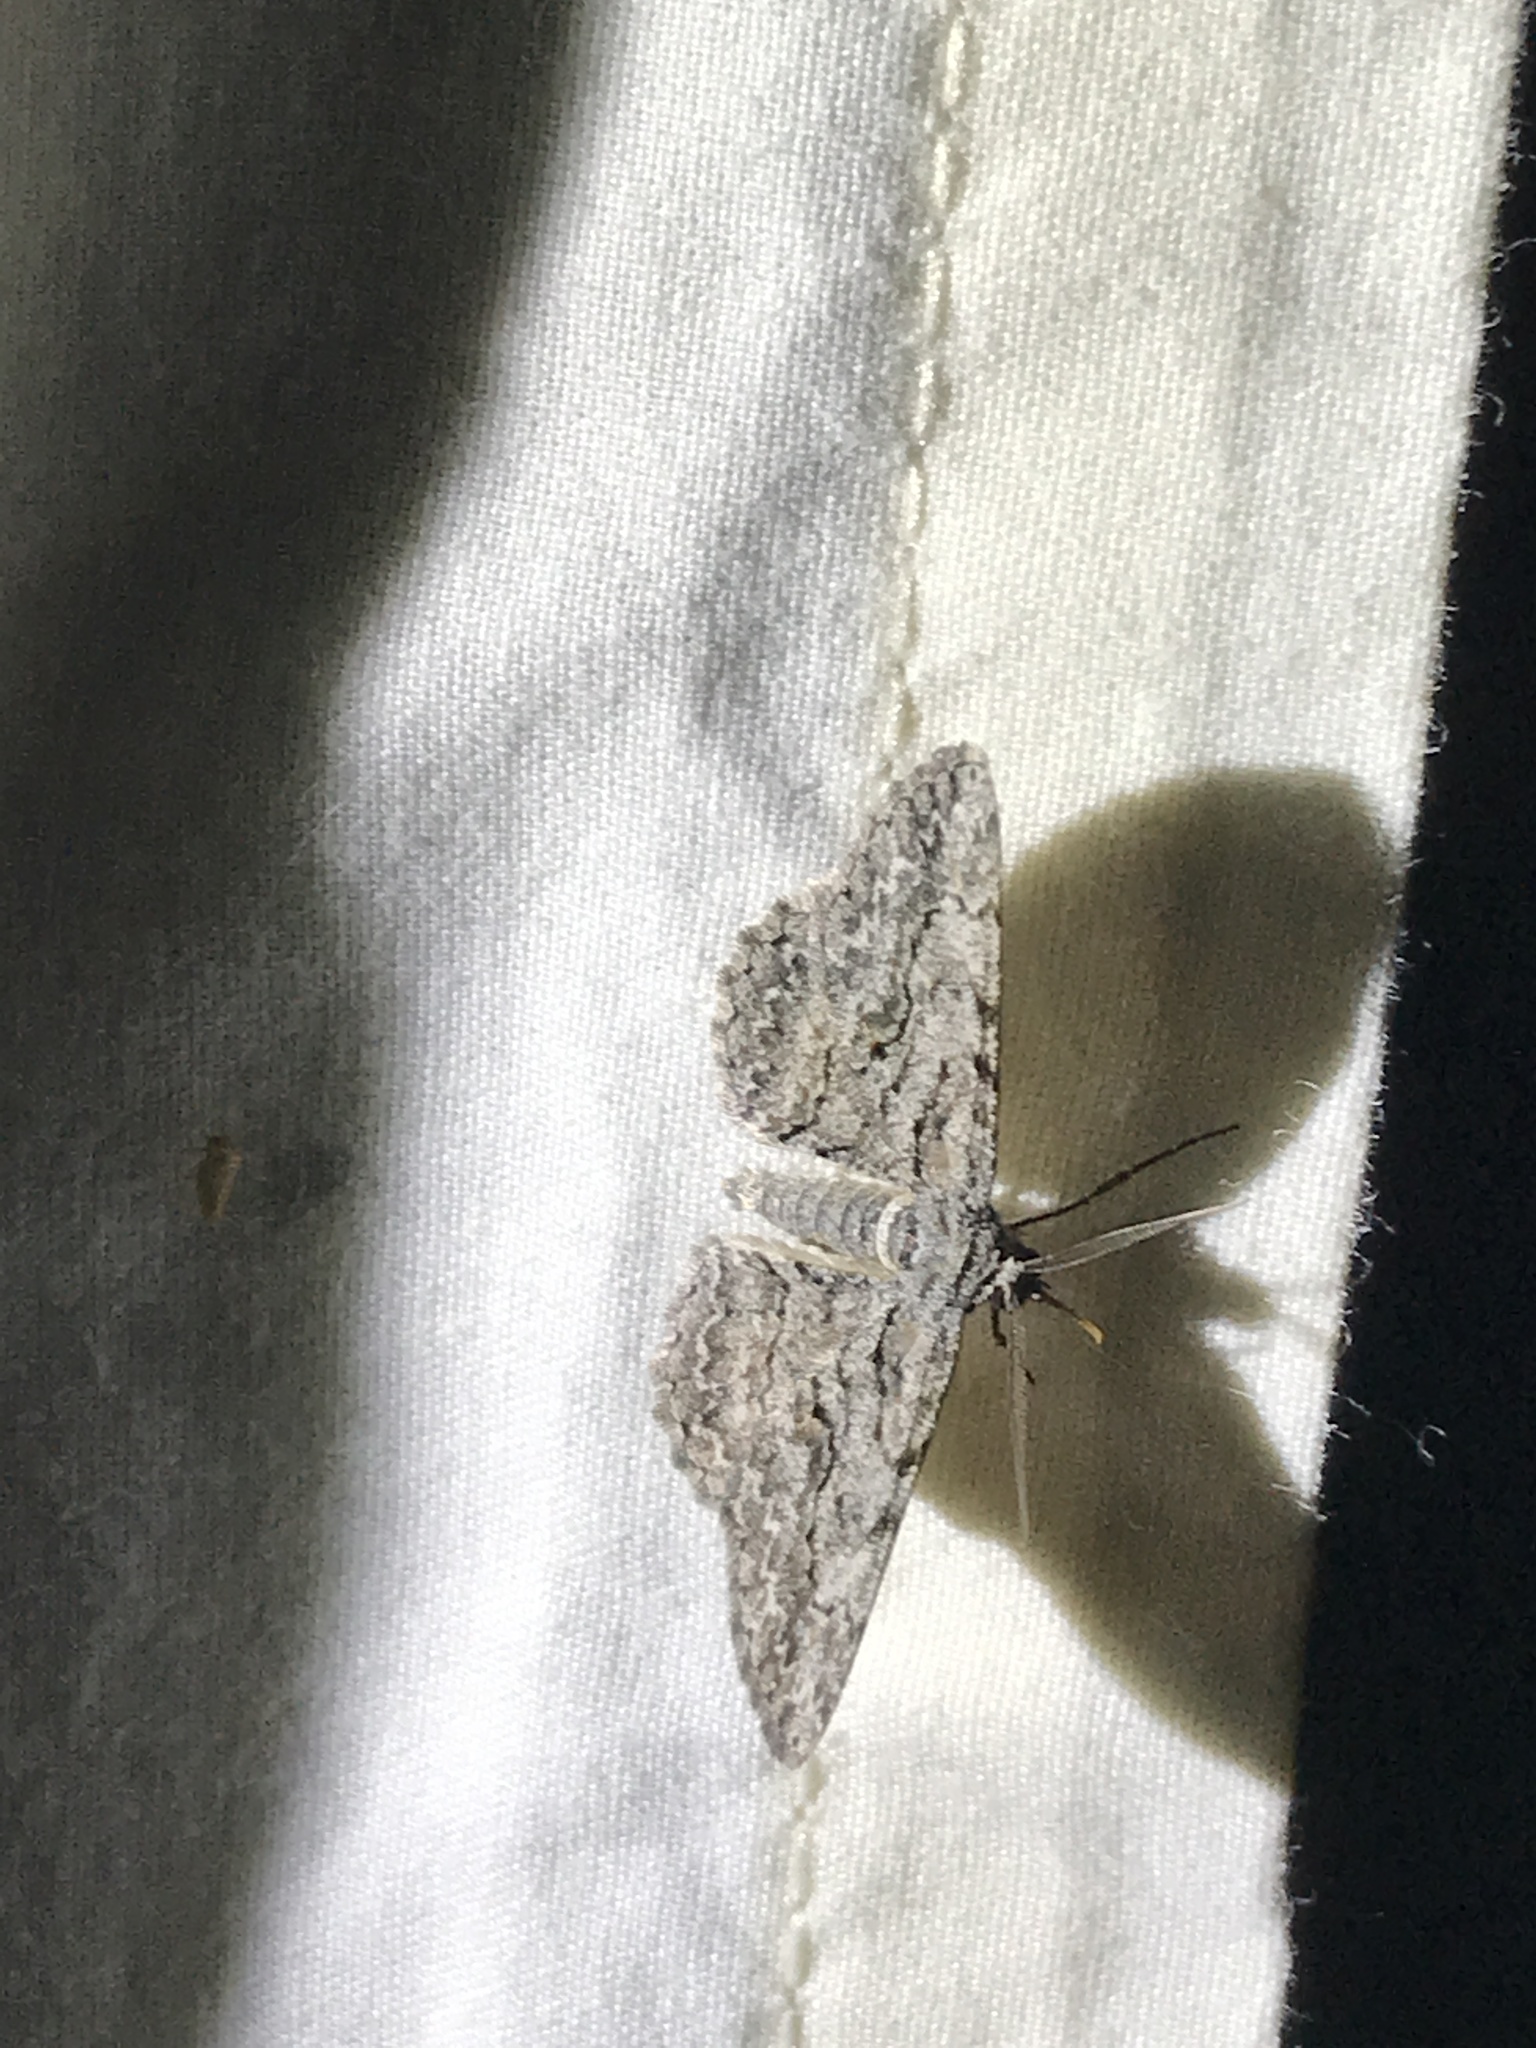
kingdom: Animalia
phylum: Arthropoda
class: Insecta
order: Lepidoptera
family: Geometridae
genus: Anavitrinella
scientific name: Anavitrinella pampinaria
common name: Common gray
